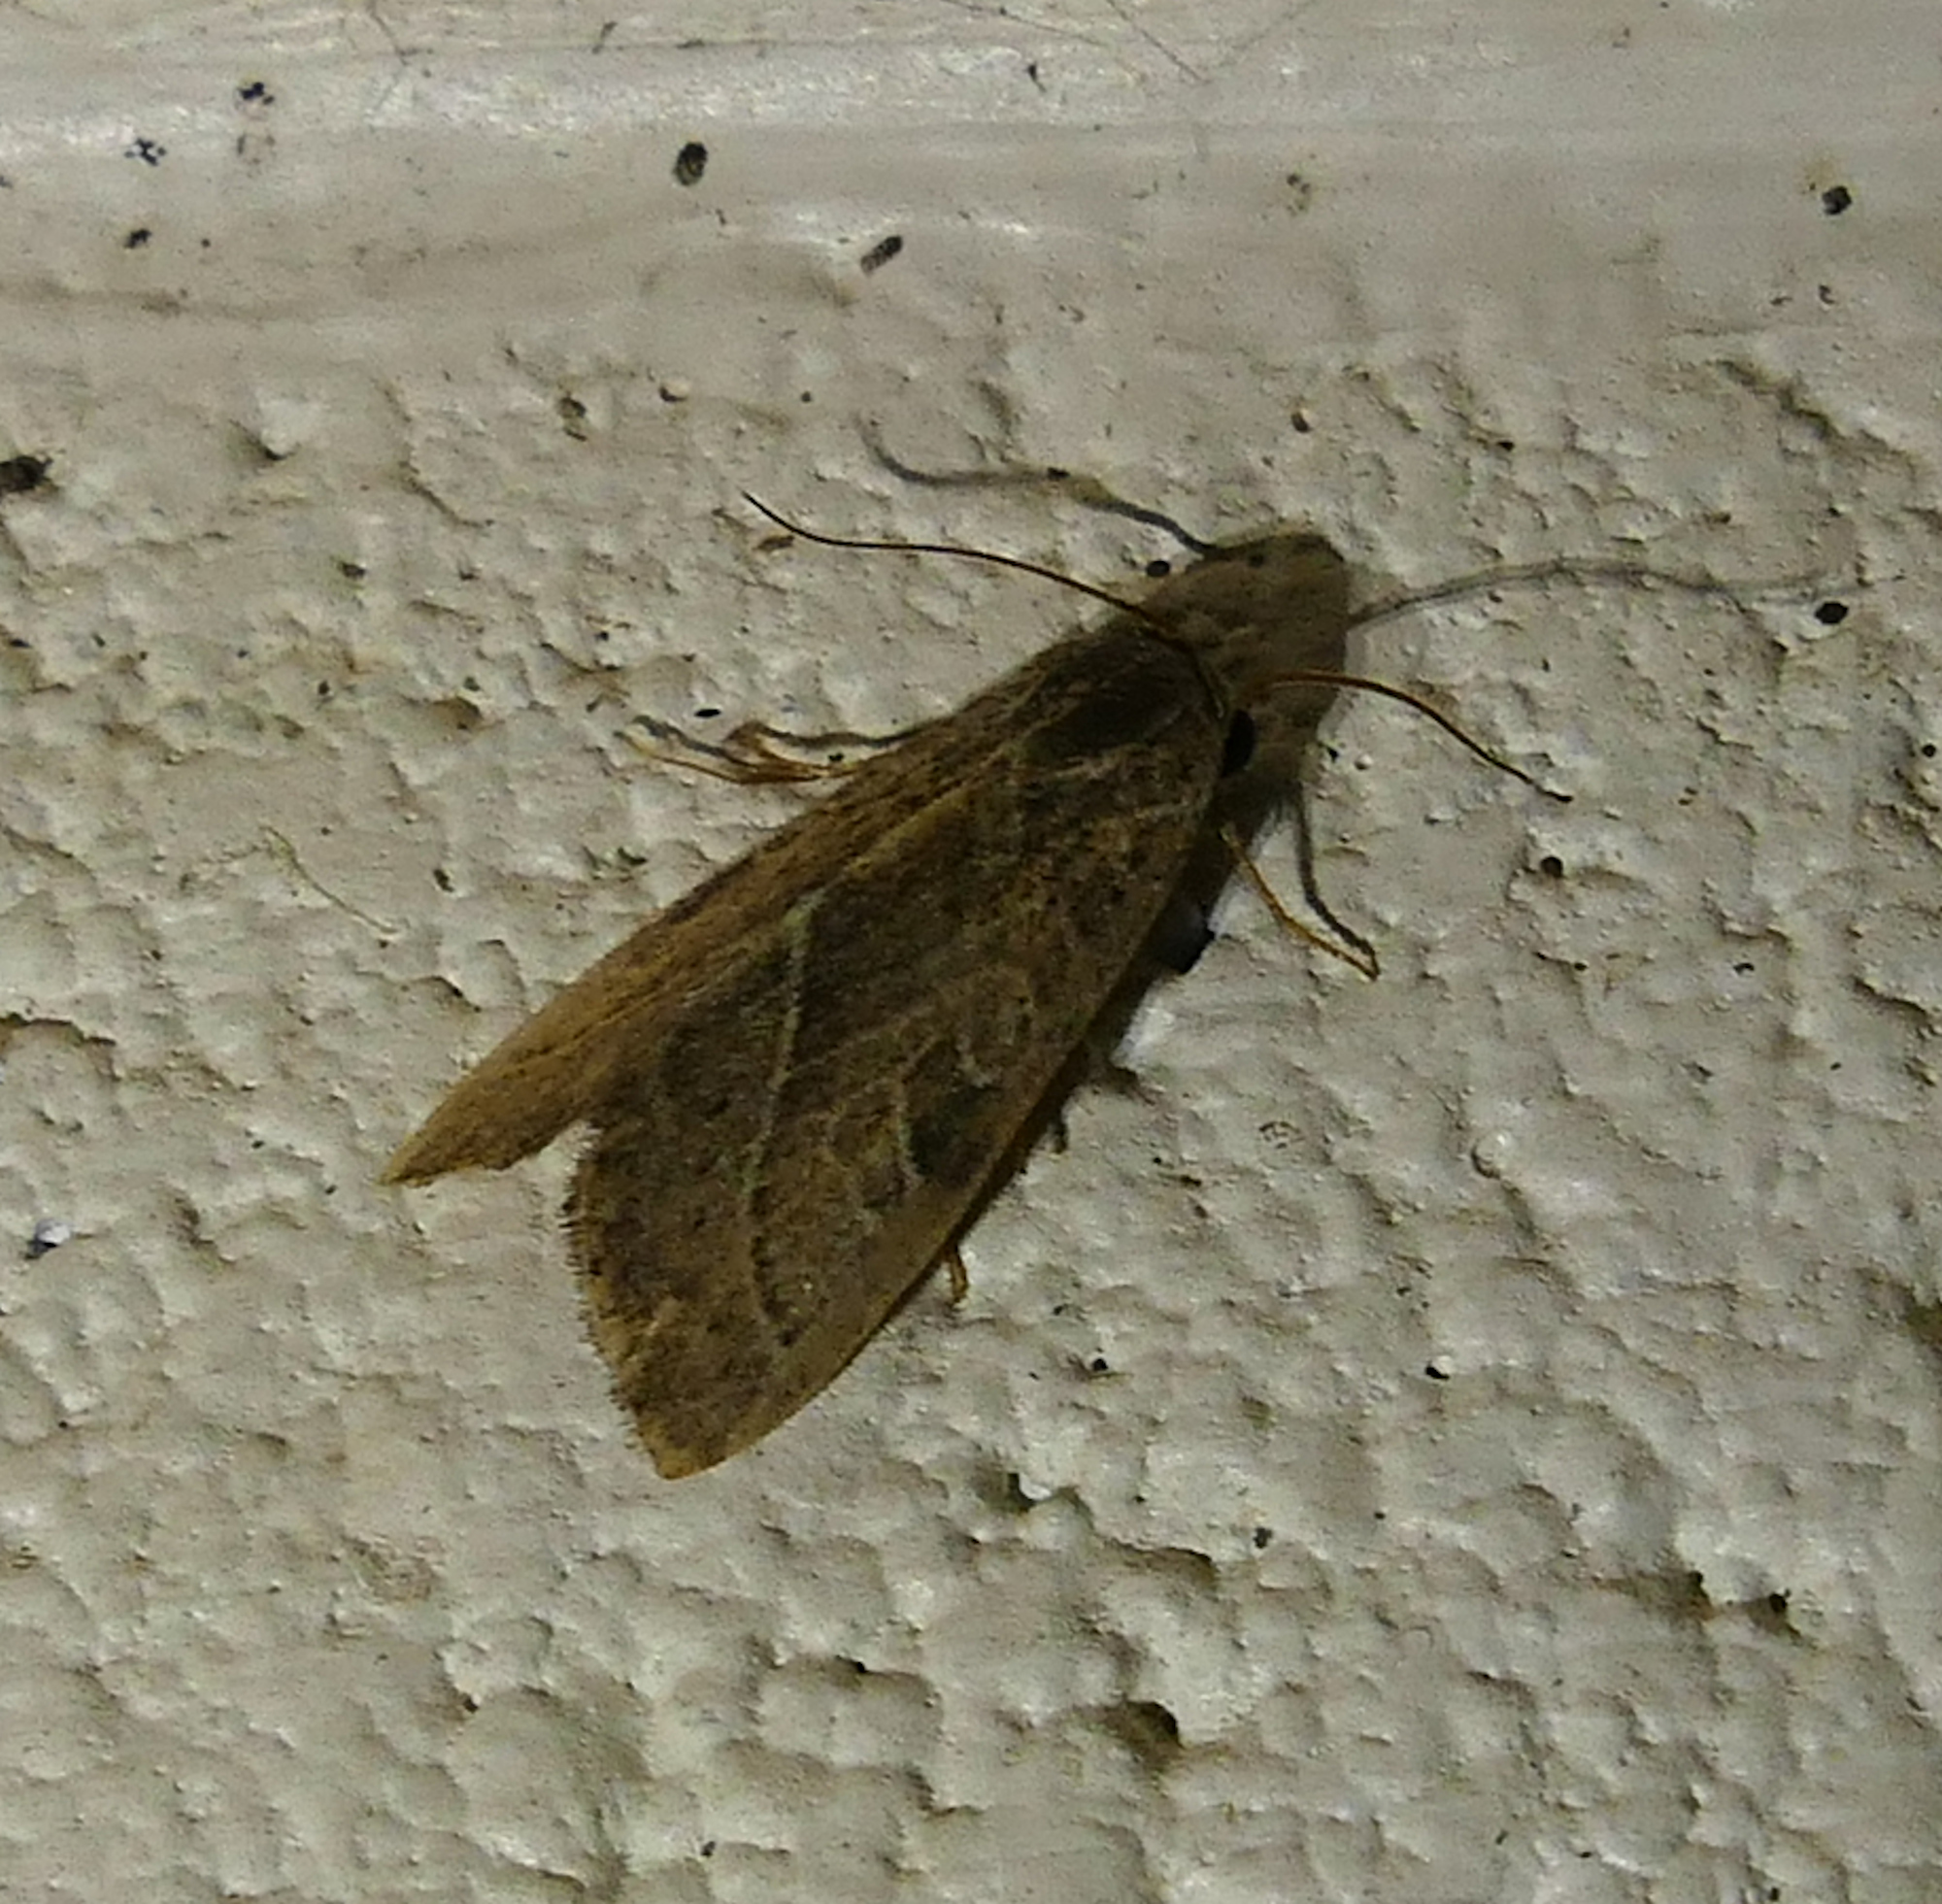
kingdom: Animalia
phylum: Arthropoda
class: Insecta
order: Lepidoptera
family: Noctuidae
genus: Galgula
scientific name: Galgula partita
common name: Wedgeling
